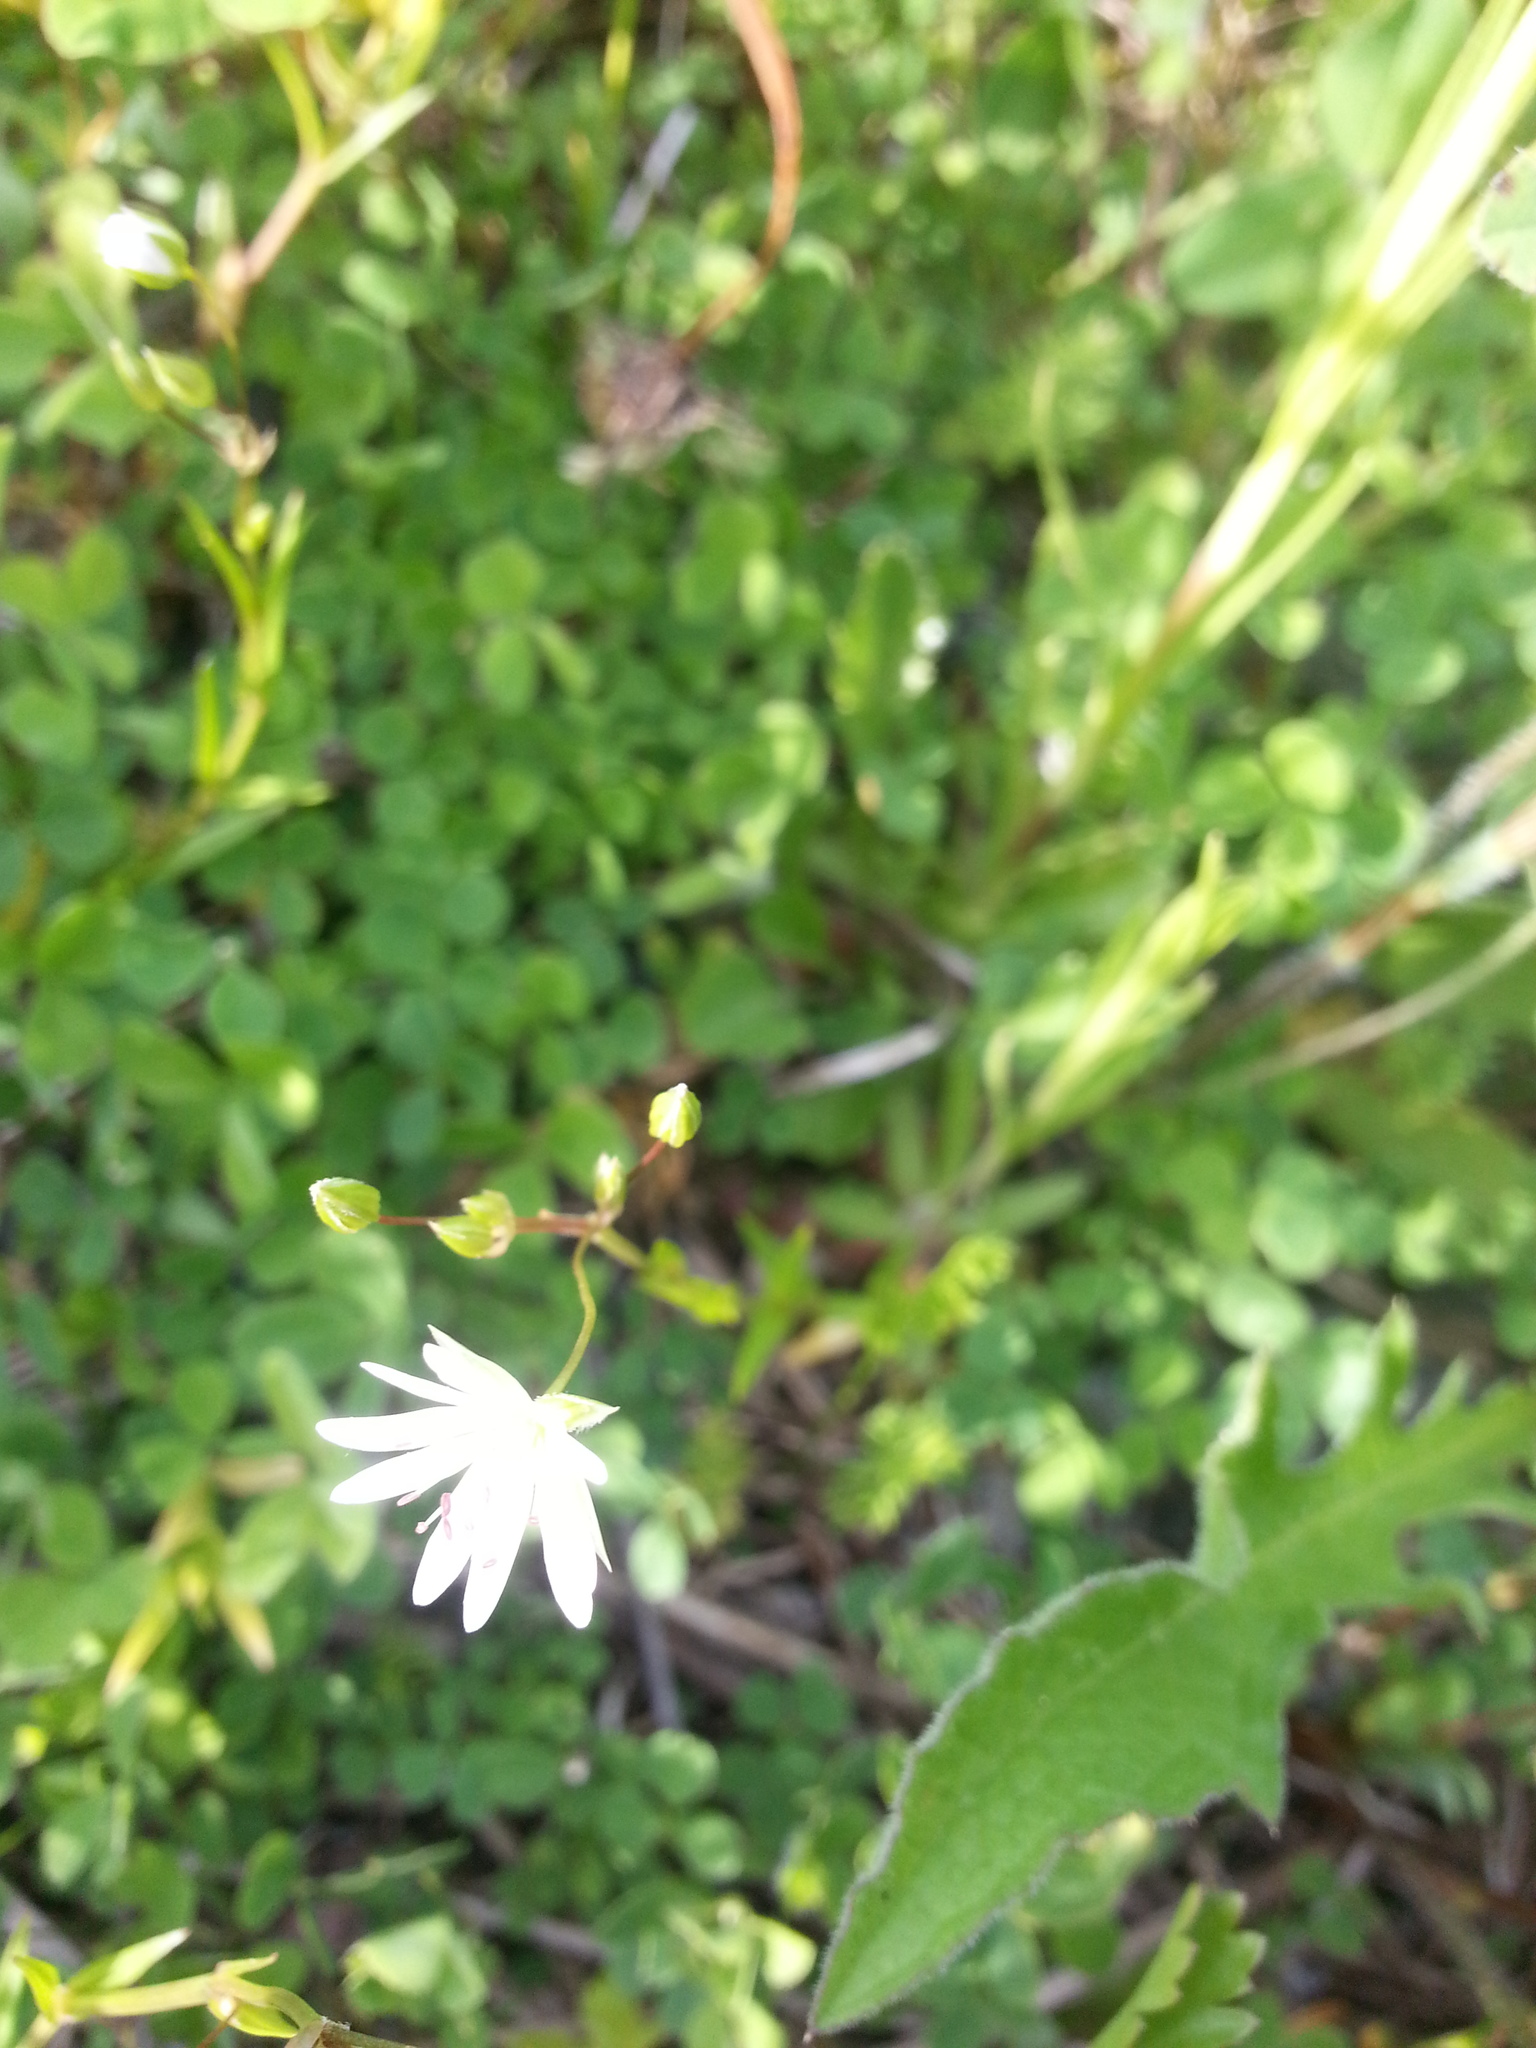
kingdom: Plantae
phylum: Tracheophyta
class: Magnoliopsida
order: Caryophyllales
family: Caryophyllaceae
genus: Stellaria
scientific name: Stellaria graminea
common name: Grass-like starwort
